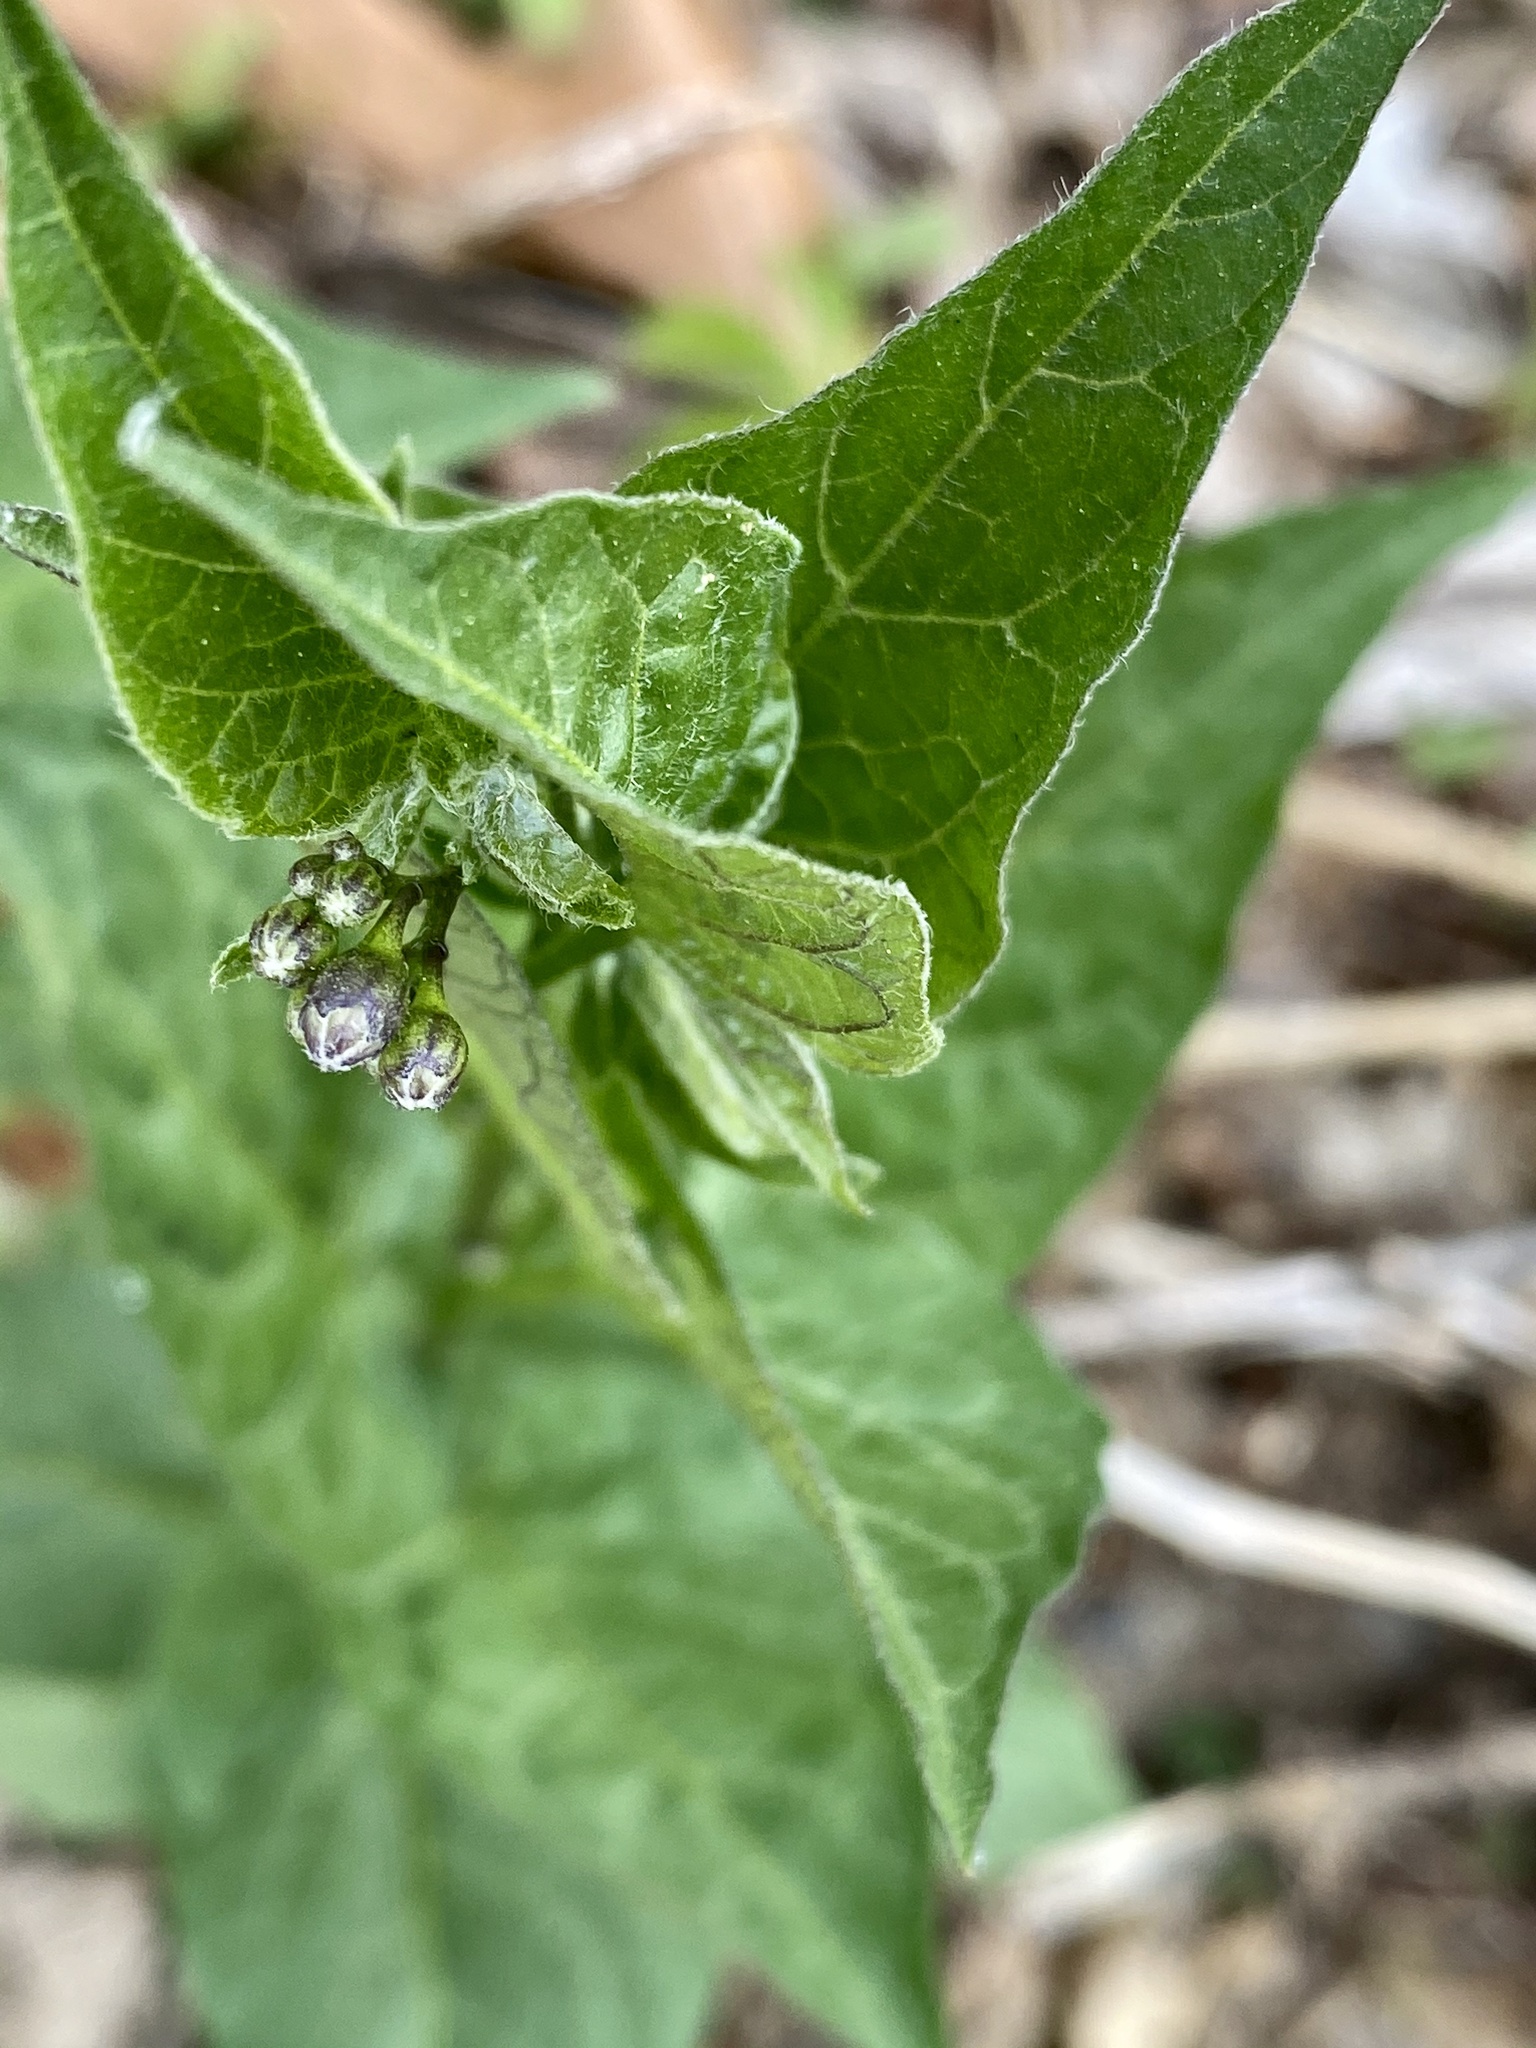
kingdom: Plantae
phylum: Tracheophyta
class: Magnoliopsida
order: Solanales
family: Solanaceae
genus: Solanum
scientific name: Solanum dulcamara
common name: Climbing nightshade
